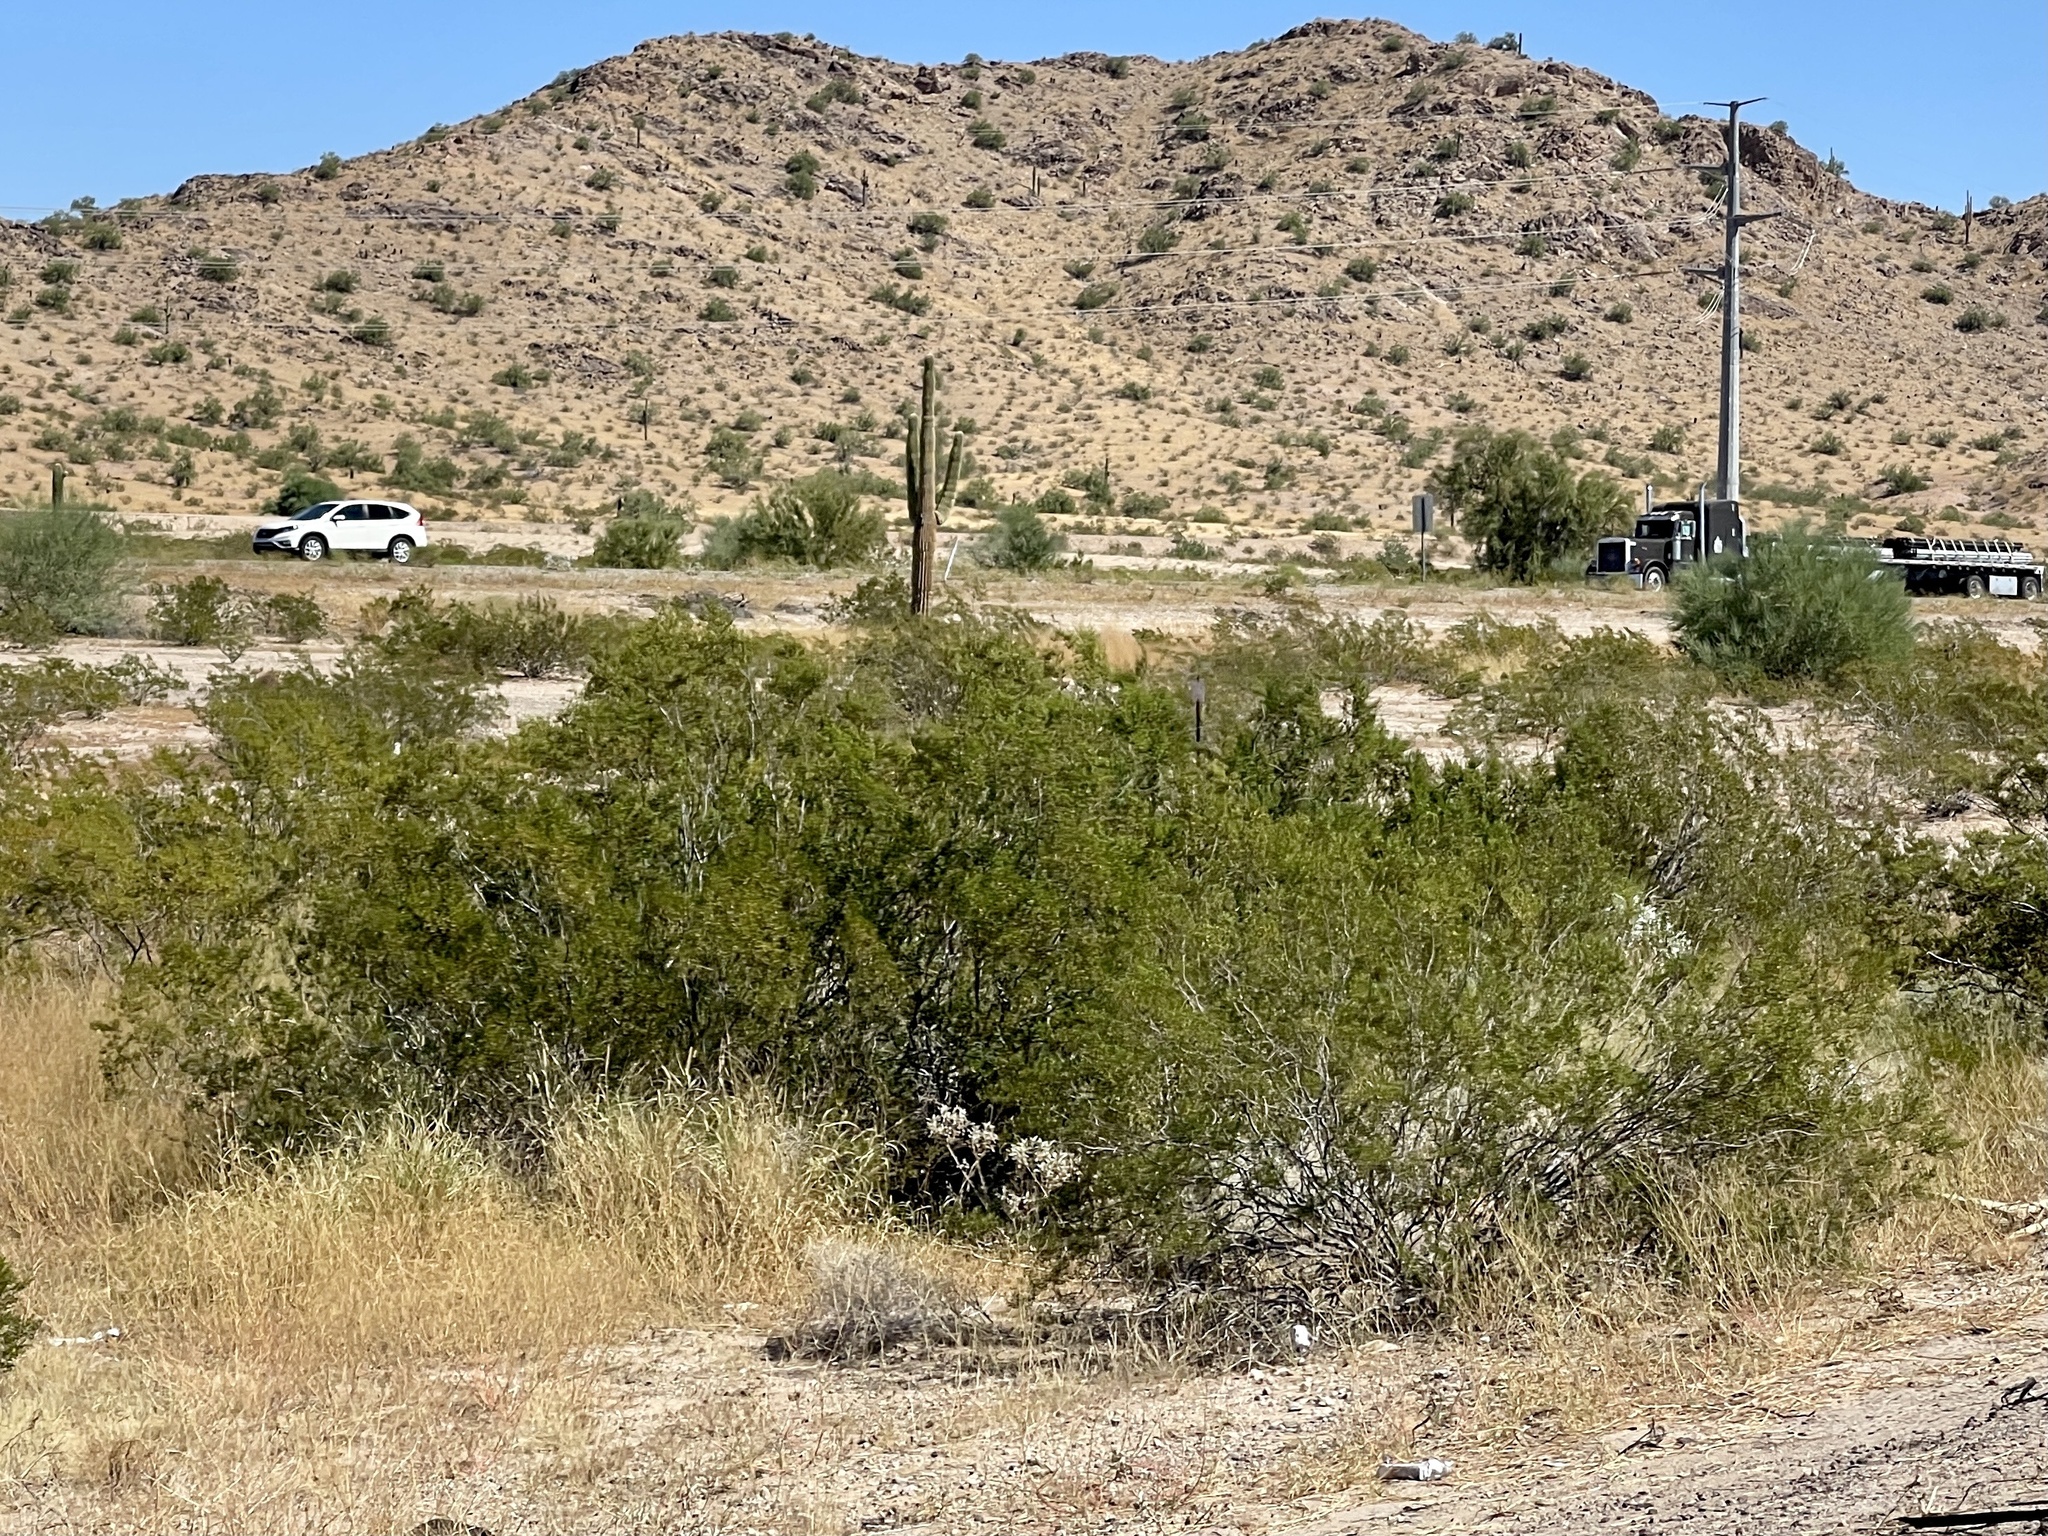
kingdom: Plantae
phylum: Tracheophyta
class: Magnoliopsida
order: Zygophyllales
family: Zygophyllaceae
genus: Larrea
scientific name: Larrea tridentata
